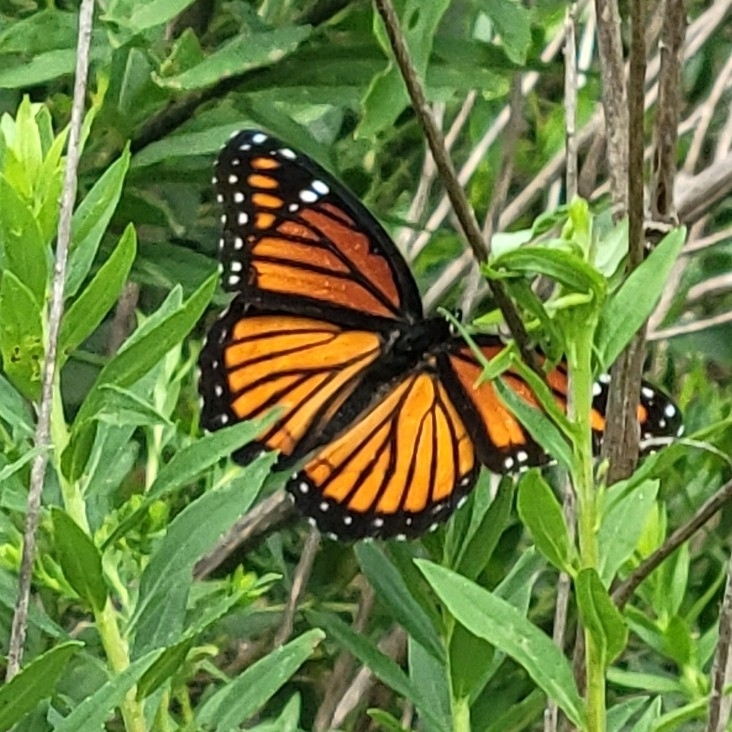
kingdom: Animalia
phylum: Arthropoda
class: Insecta
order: Lepidoptera
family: Nymphalidae
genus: Limenitis
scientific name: Limenitis archippus
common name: Viceroy
